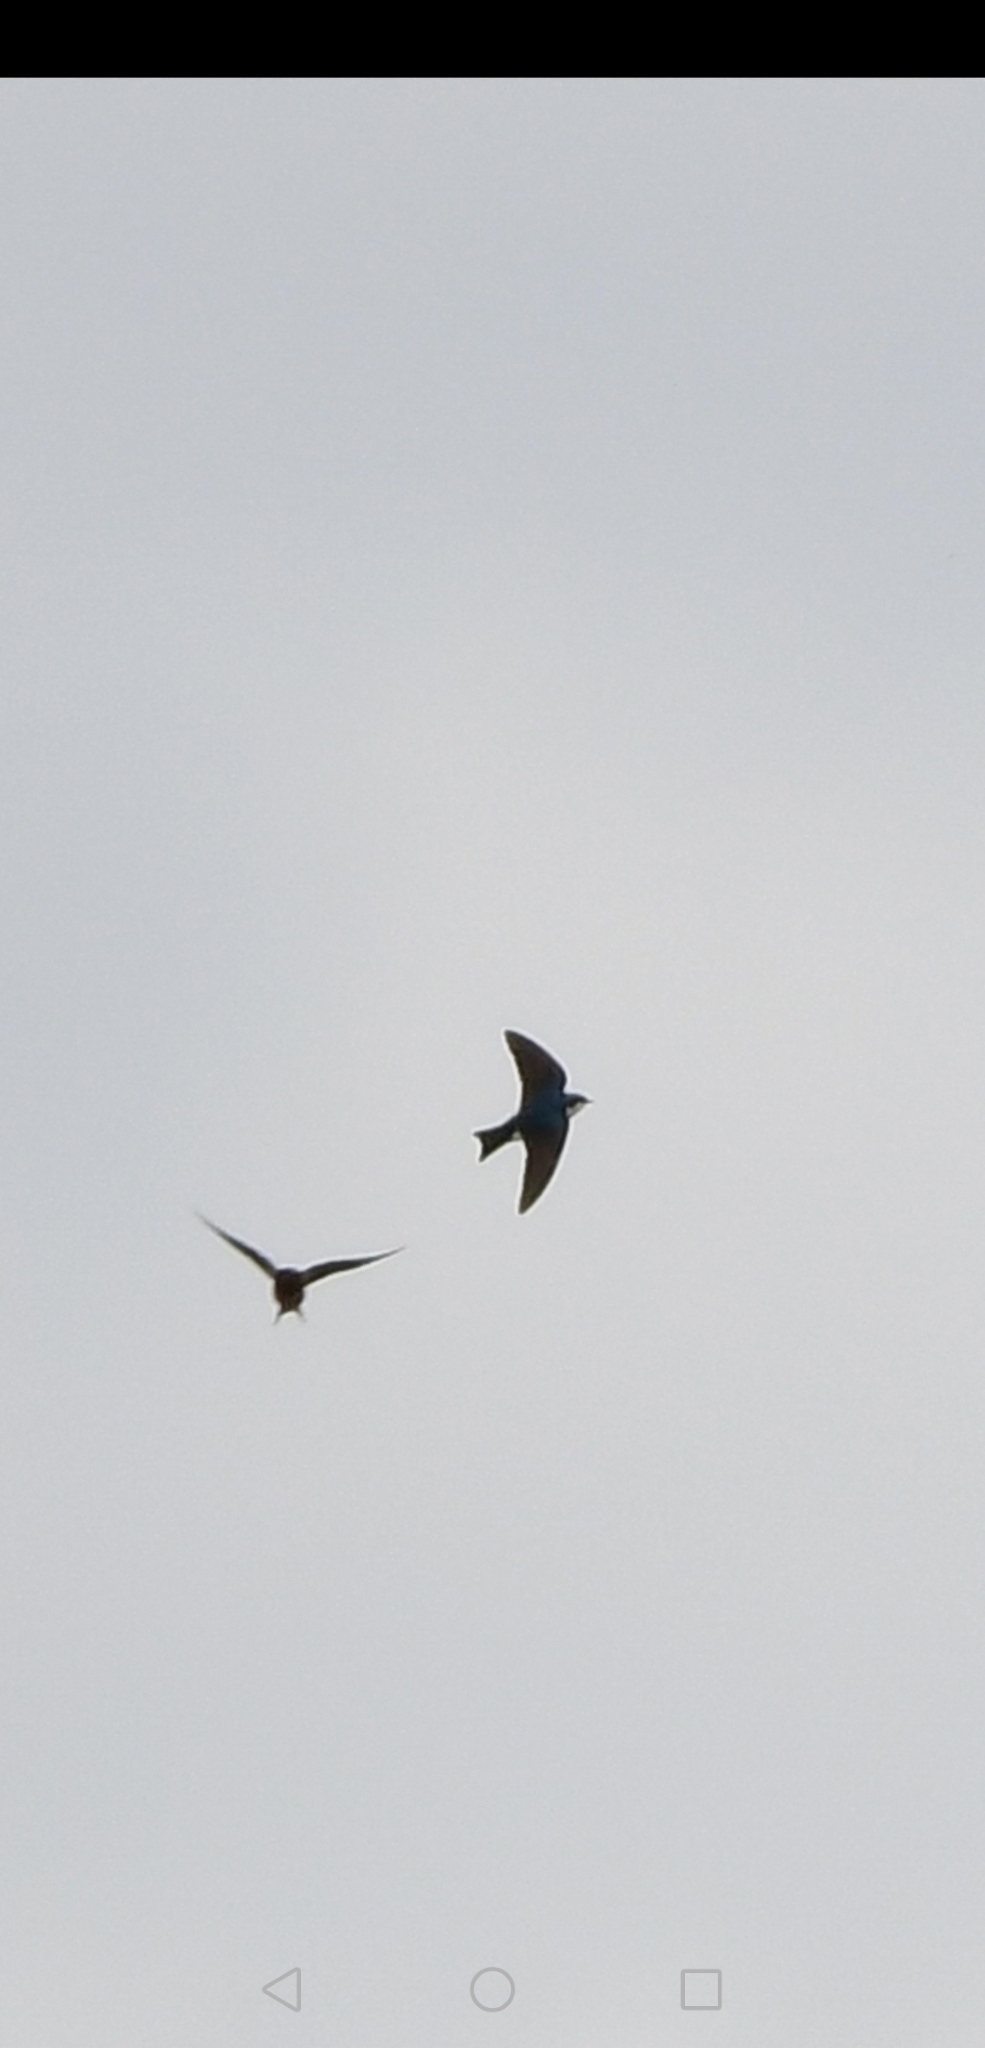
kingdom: Animalia
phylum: Chordata
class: Aves
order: Passeriformes
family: Hirundinidae
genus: Tachycineta
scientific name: Tachycineta bicolor
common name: Tree swallow
